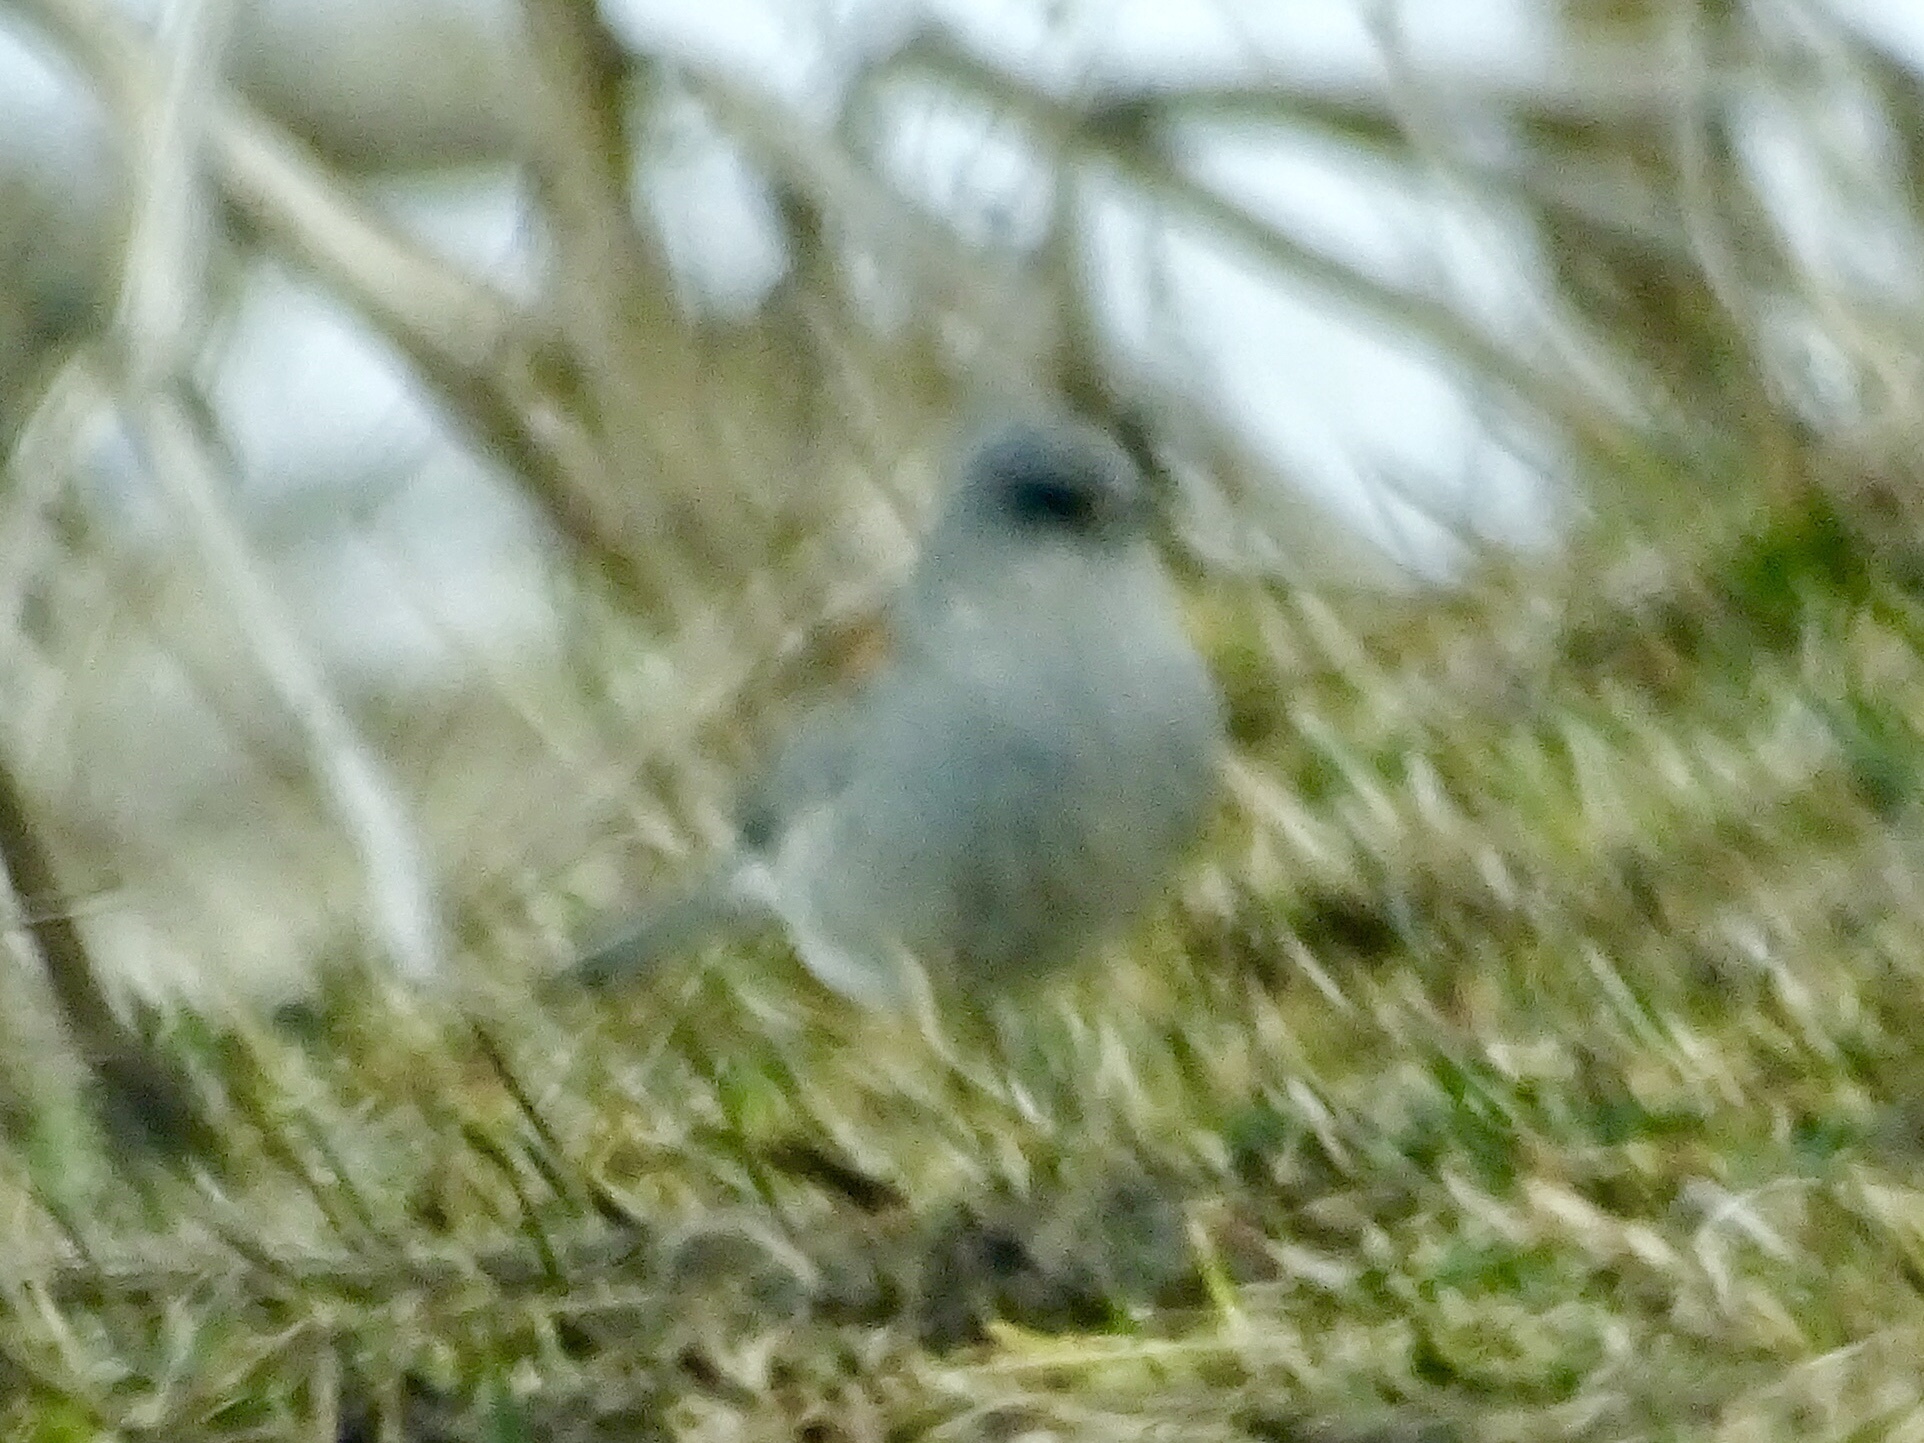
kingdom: Animalia
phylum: Chordata
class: Aves
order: Passeriformes
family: Passerellidae
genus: Junco
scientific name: Junco hyemalis
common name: Dark-eyed junco
